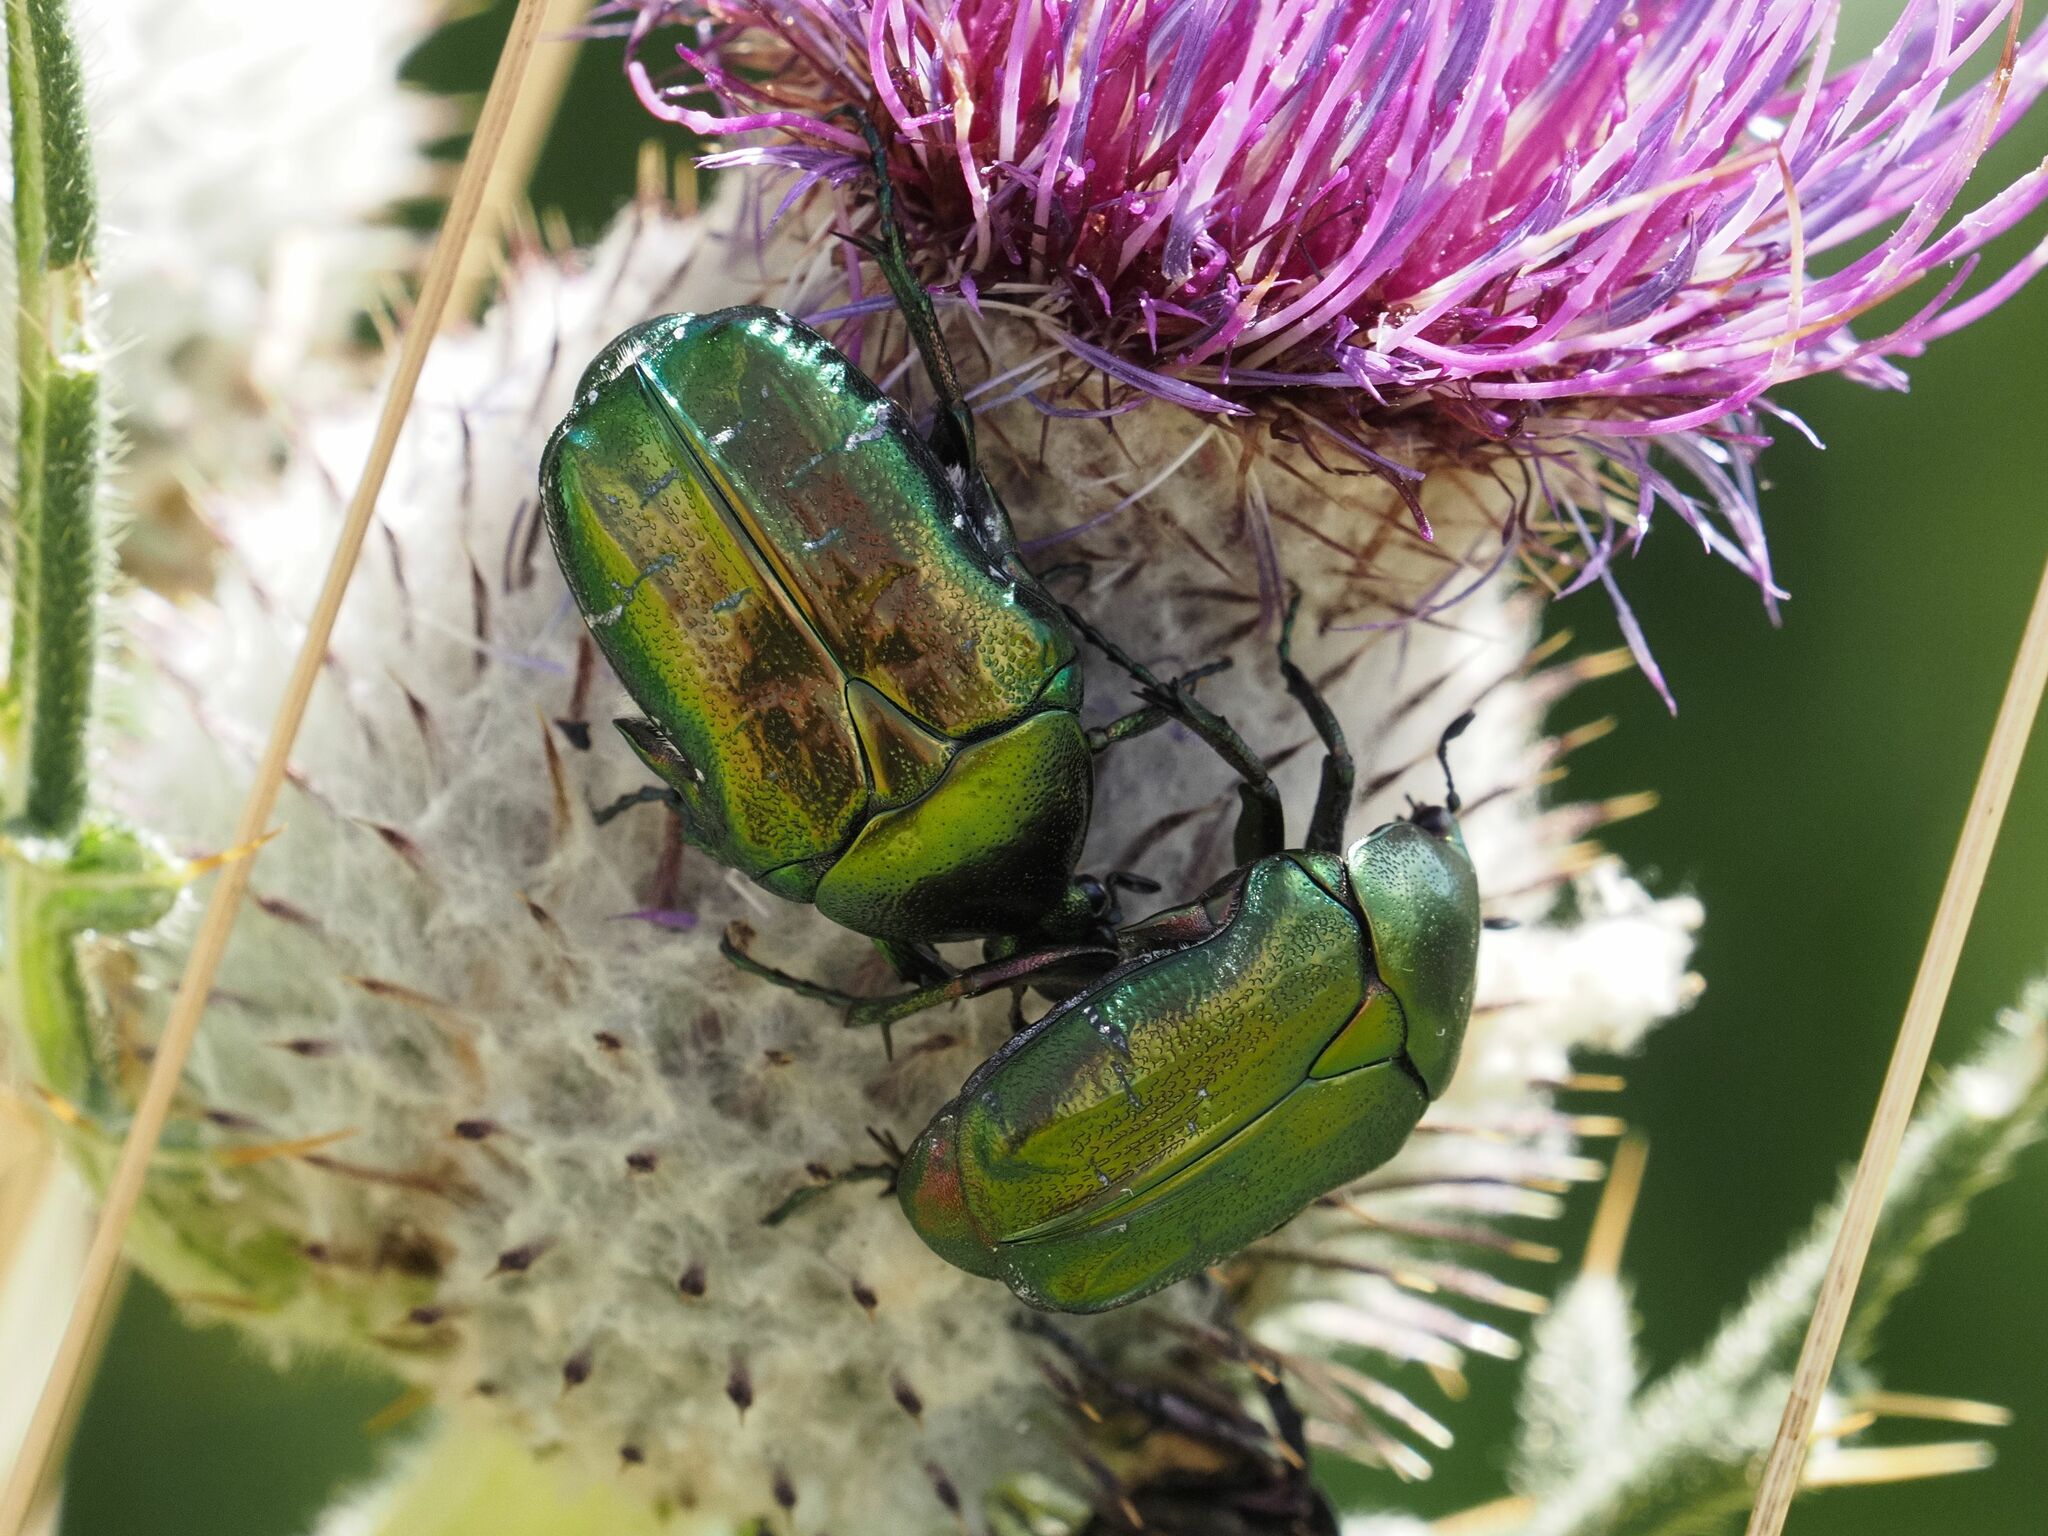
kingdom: Animalia
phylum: Arthropoda
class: Insecta
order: Coleoptera
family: Scarabaeidae
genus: Cetonia
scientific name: Cetonia aurata
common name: Rose chafer
